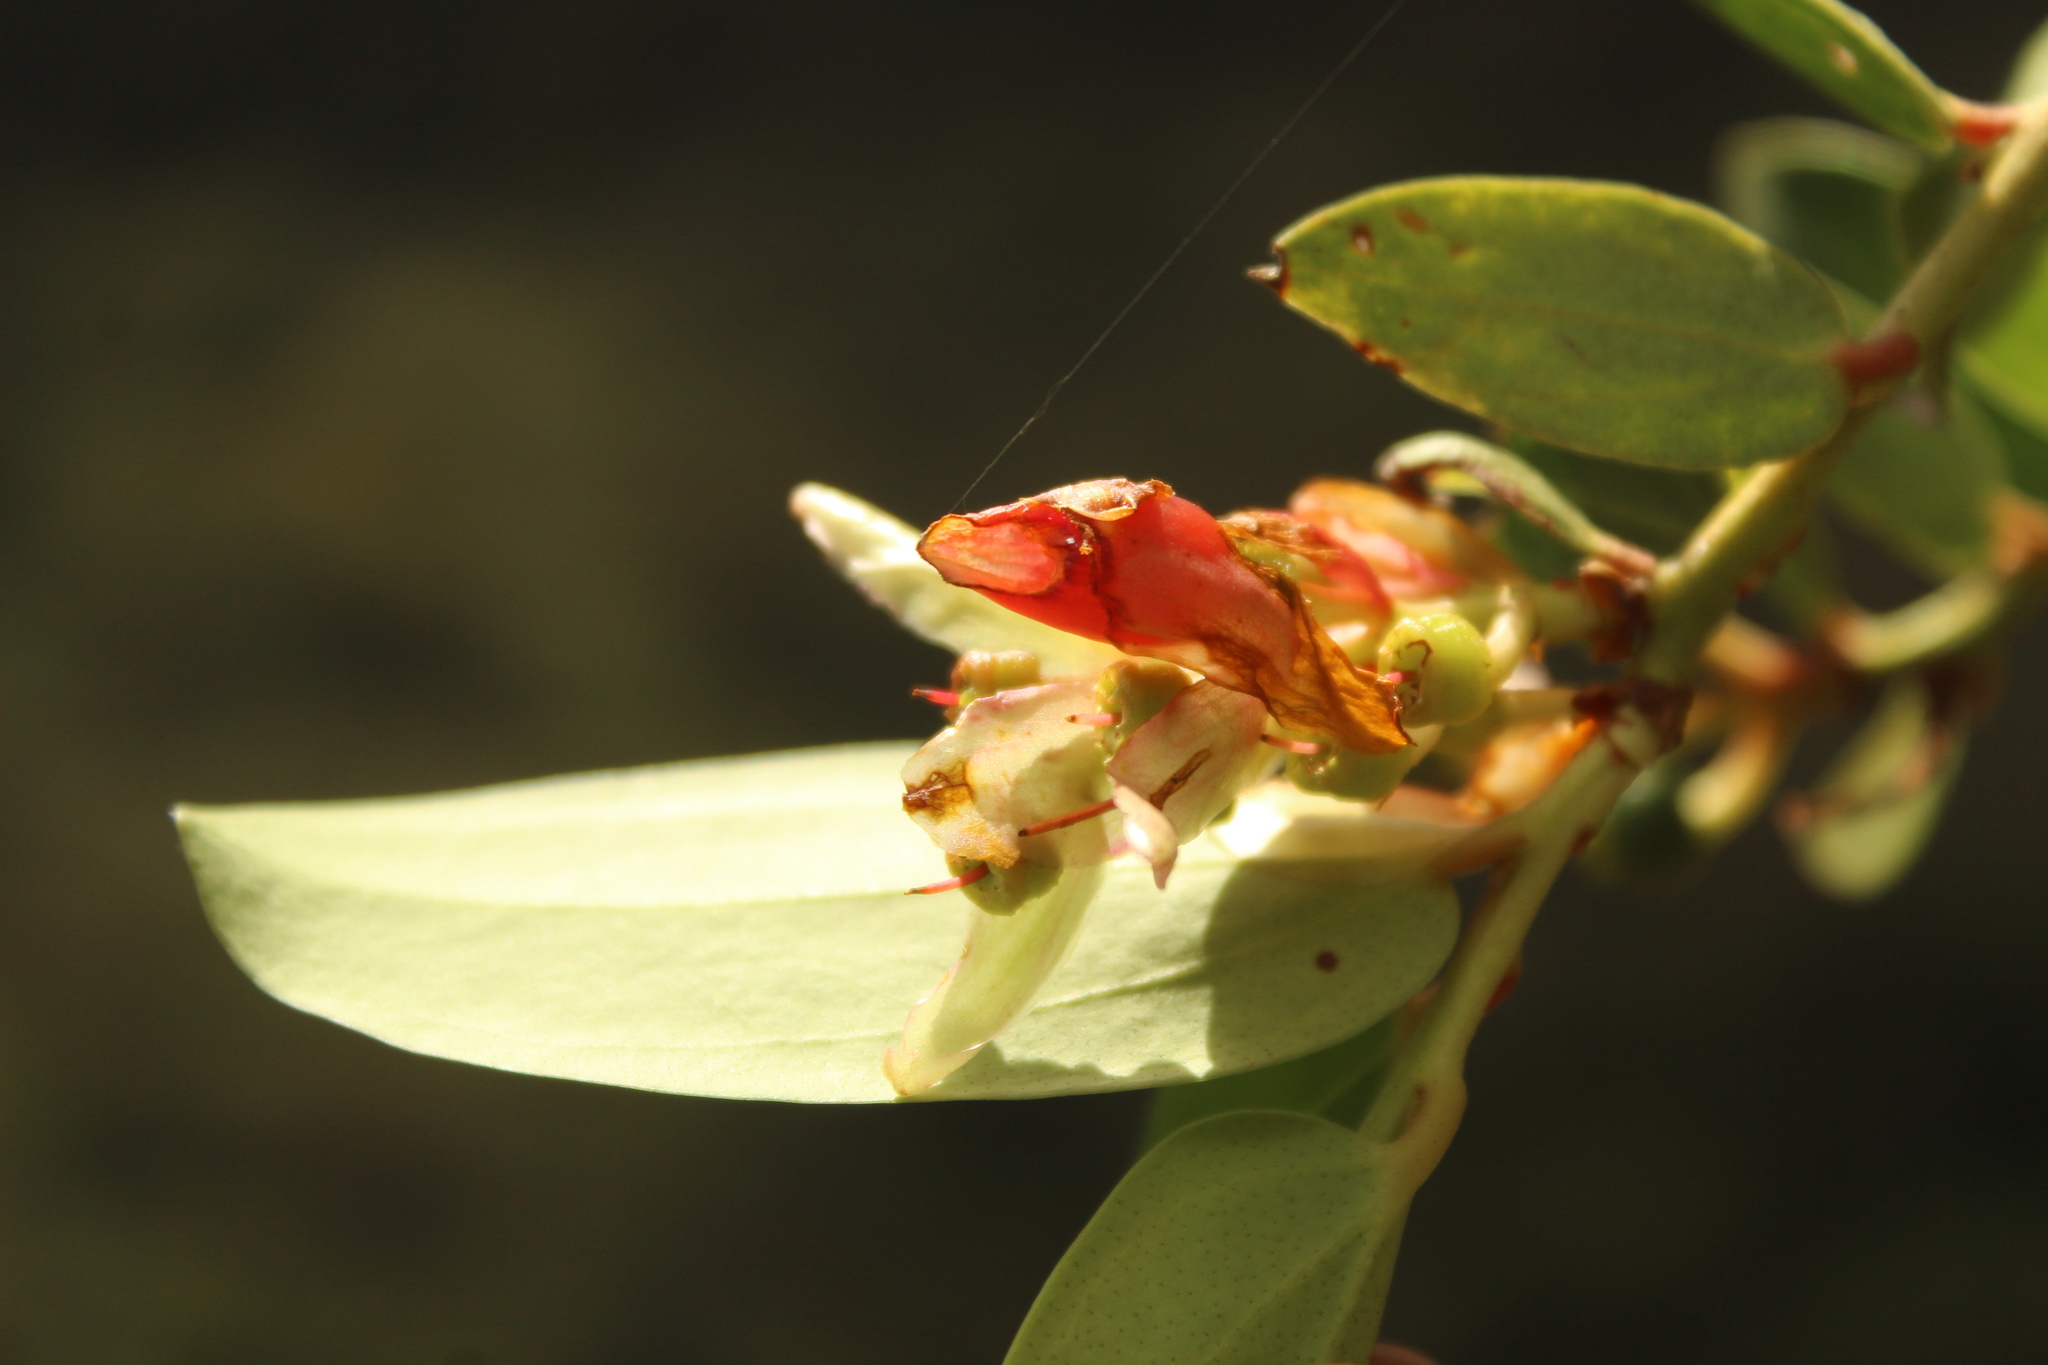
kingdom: Plantae
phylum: Tracheophyta
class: Magnoliopsida
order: Ericales
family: Ericaceae
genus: Cavendishia
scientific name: Cavendishia bracteata
